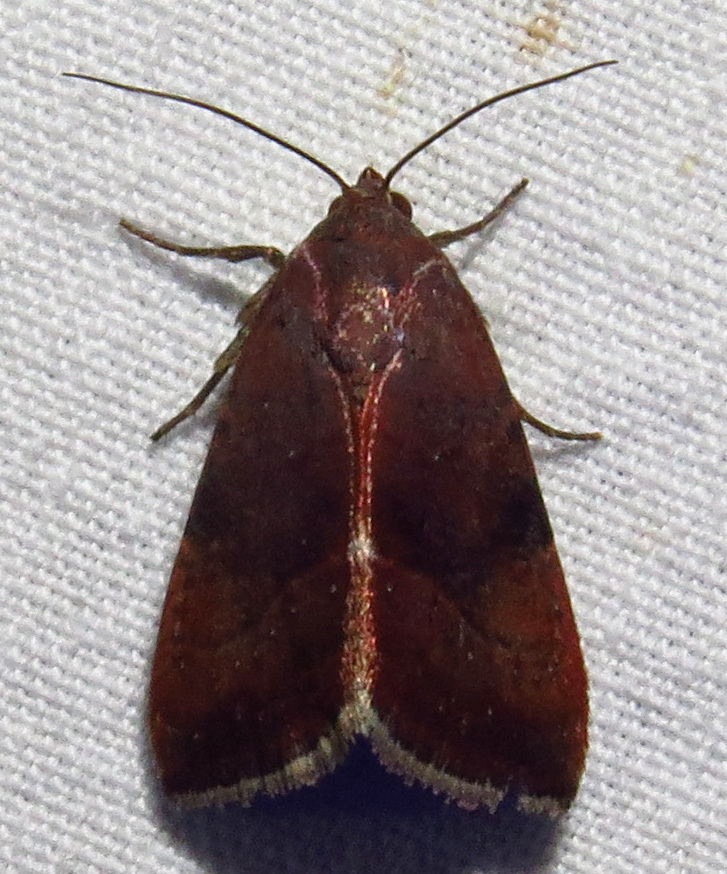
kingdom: Animalia
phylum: Arthropoda
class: Insecta
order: Lepidoptera
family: Noctuidae
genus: Galgula
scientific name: Galgula partita
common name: Wedgeling
